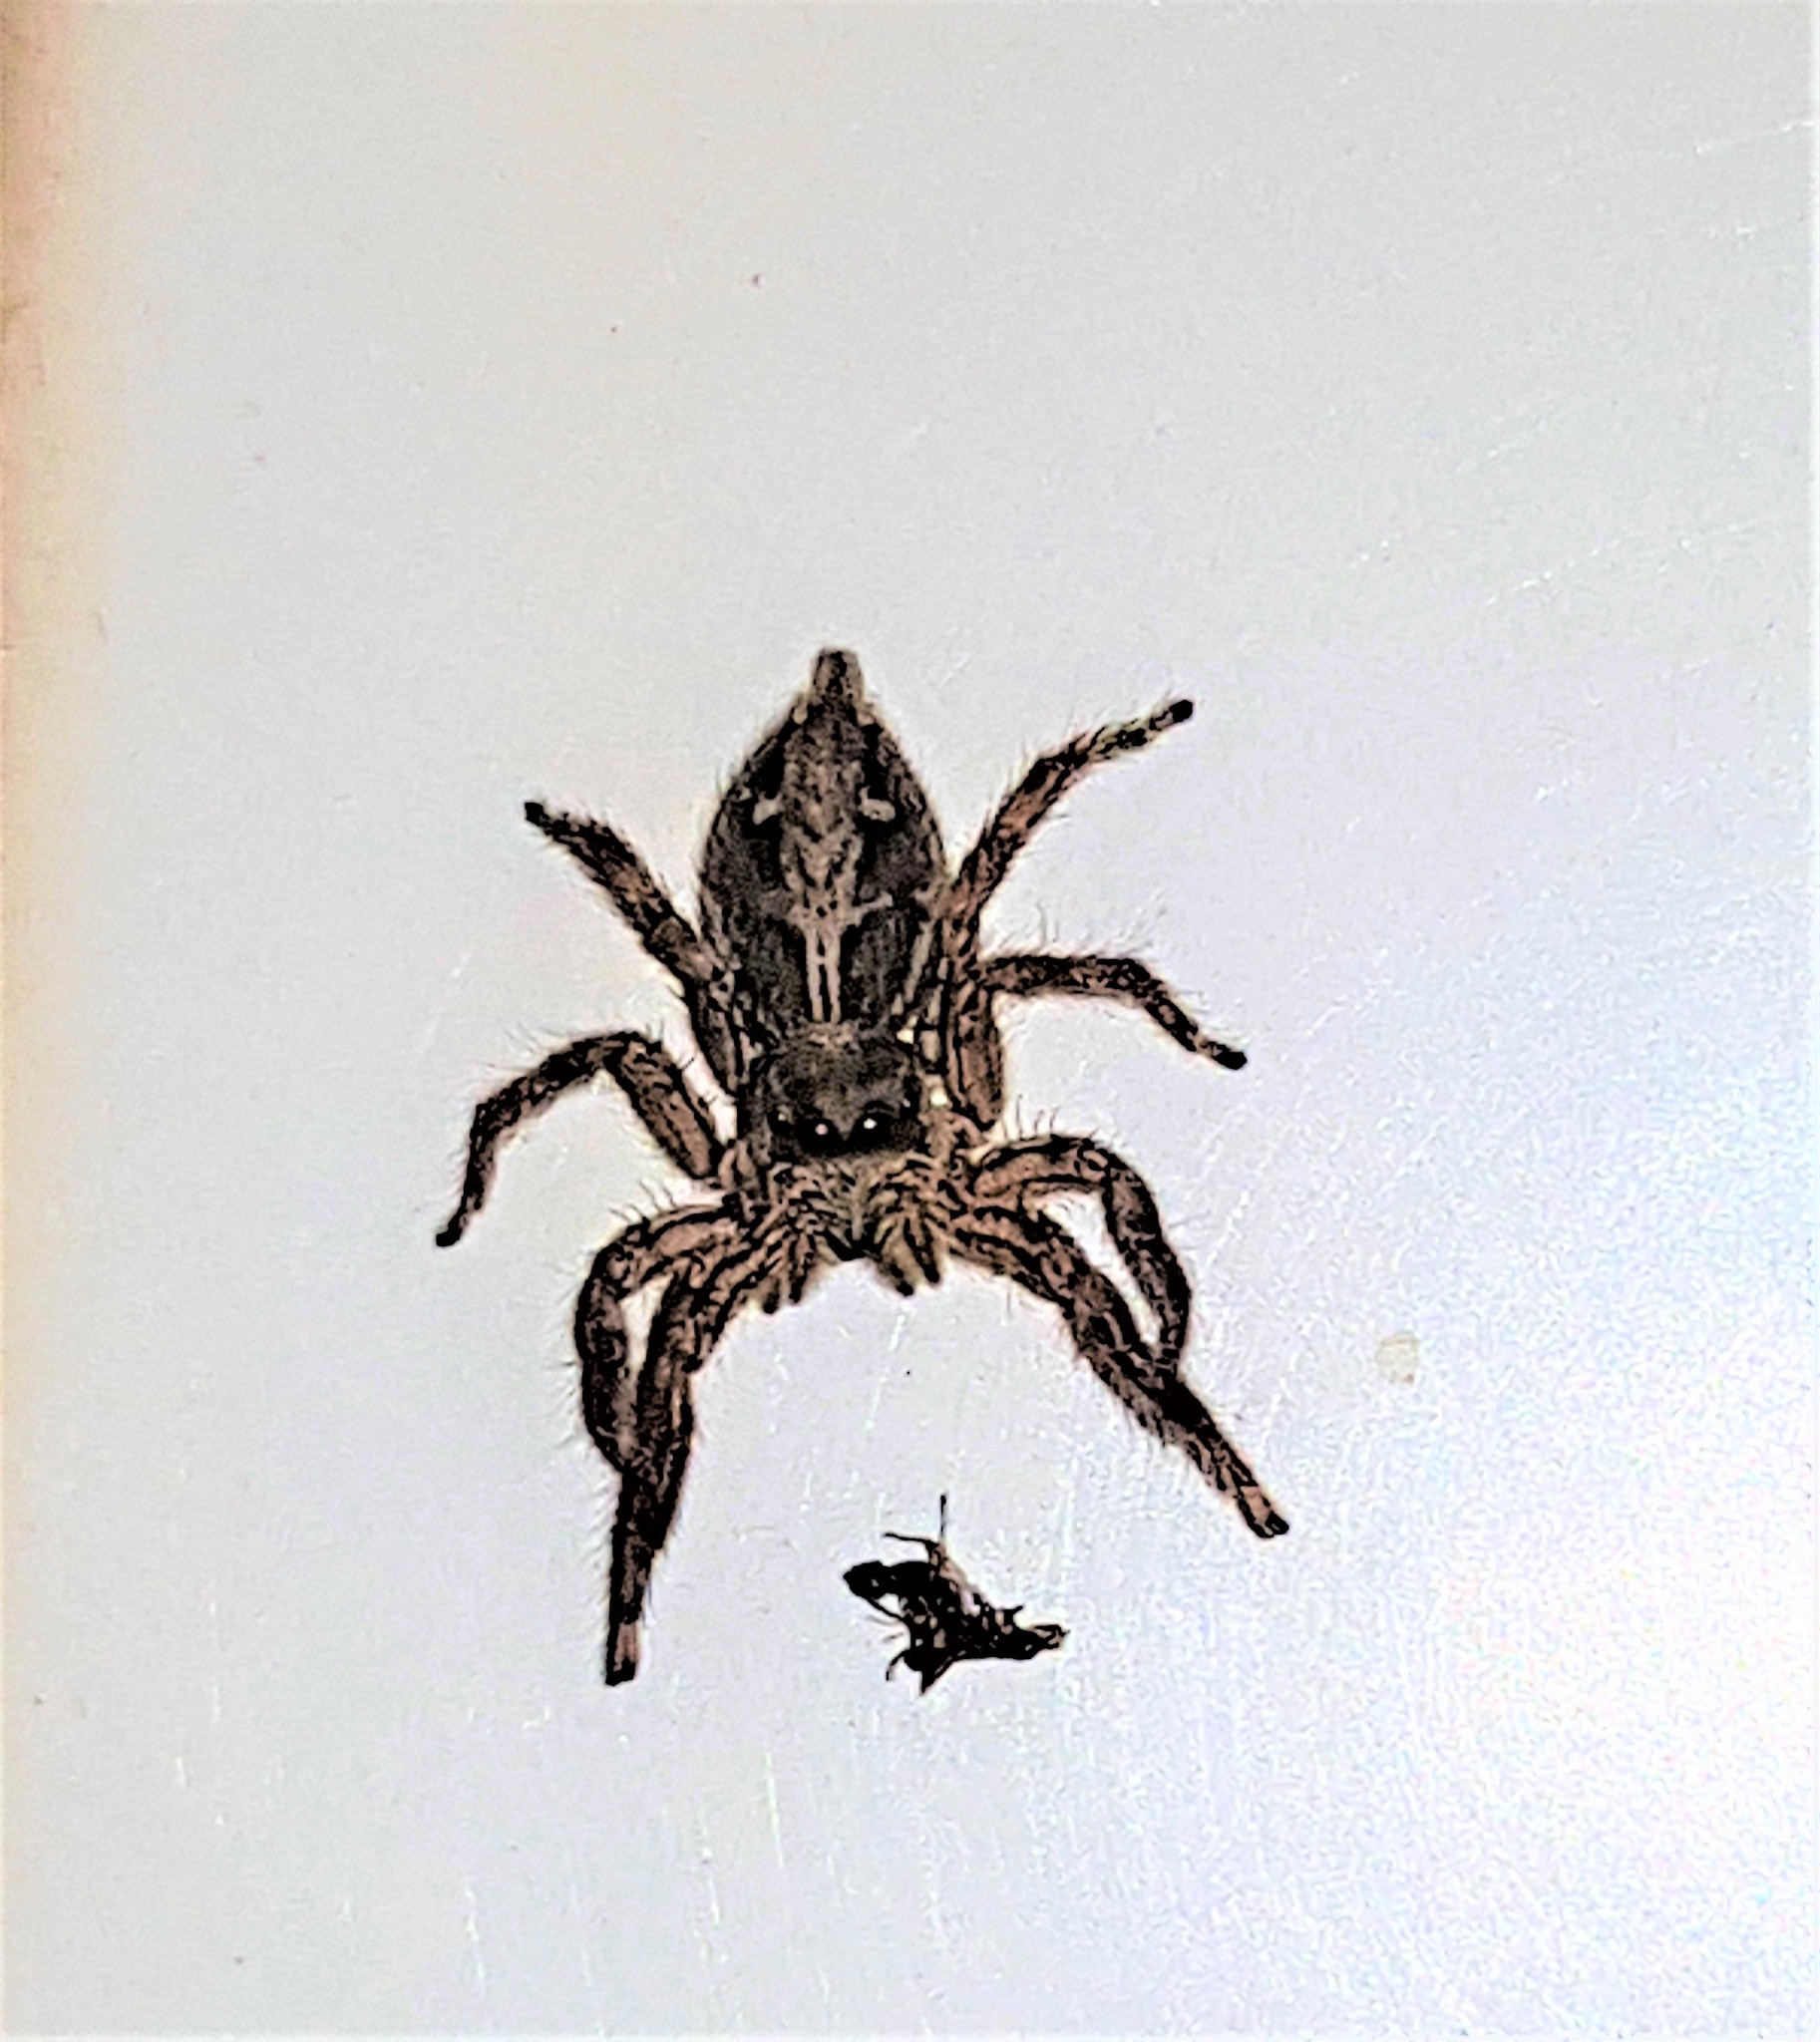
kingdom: Animalia
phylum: Arthropoda
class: Arachnida
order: Araneae
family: Salticidae
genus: Plexippus
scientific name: Plexippus paykulli
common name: Pantropical jumper
